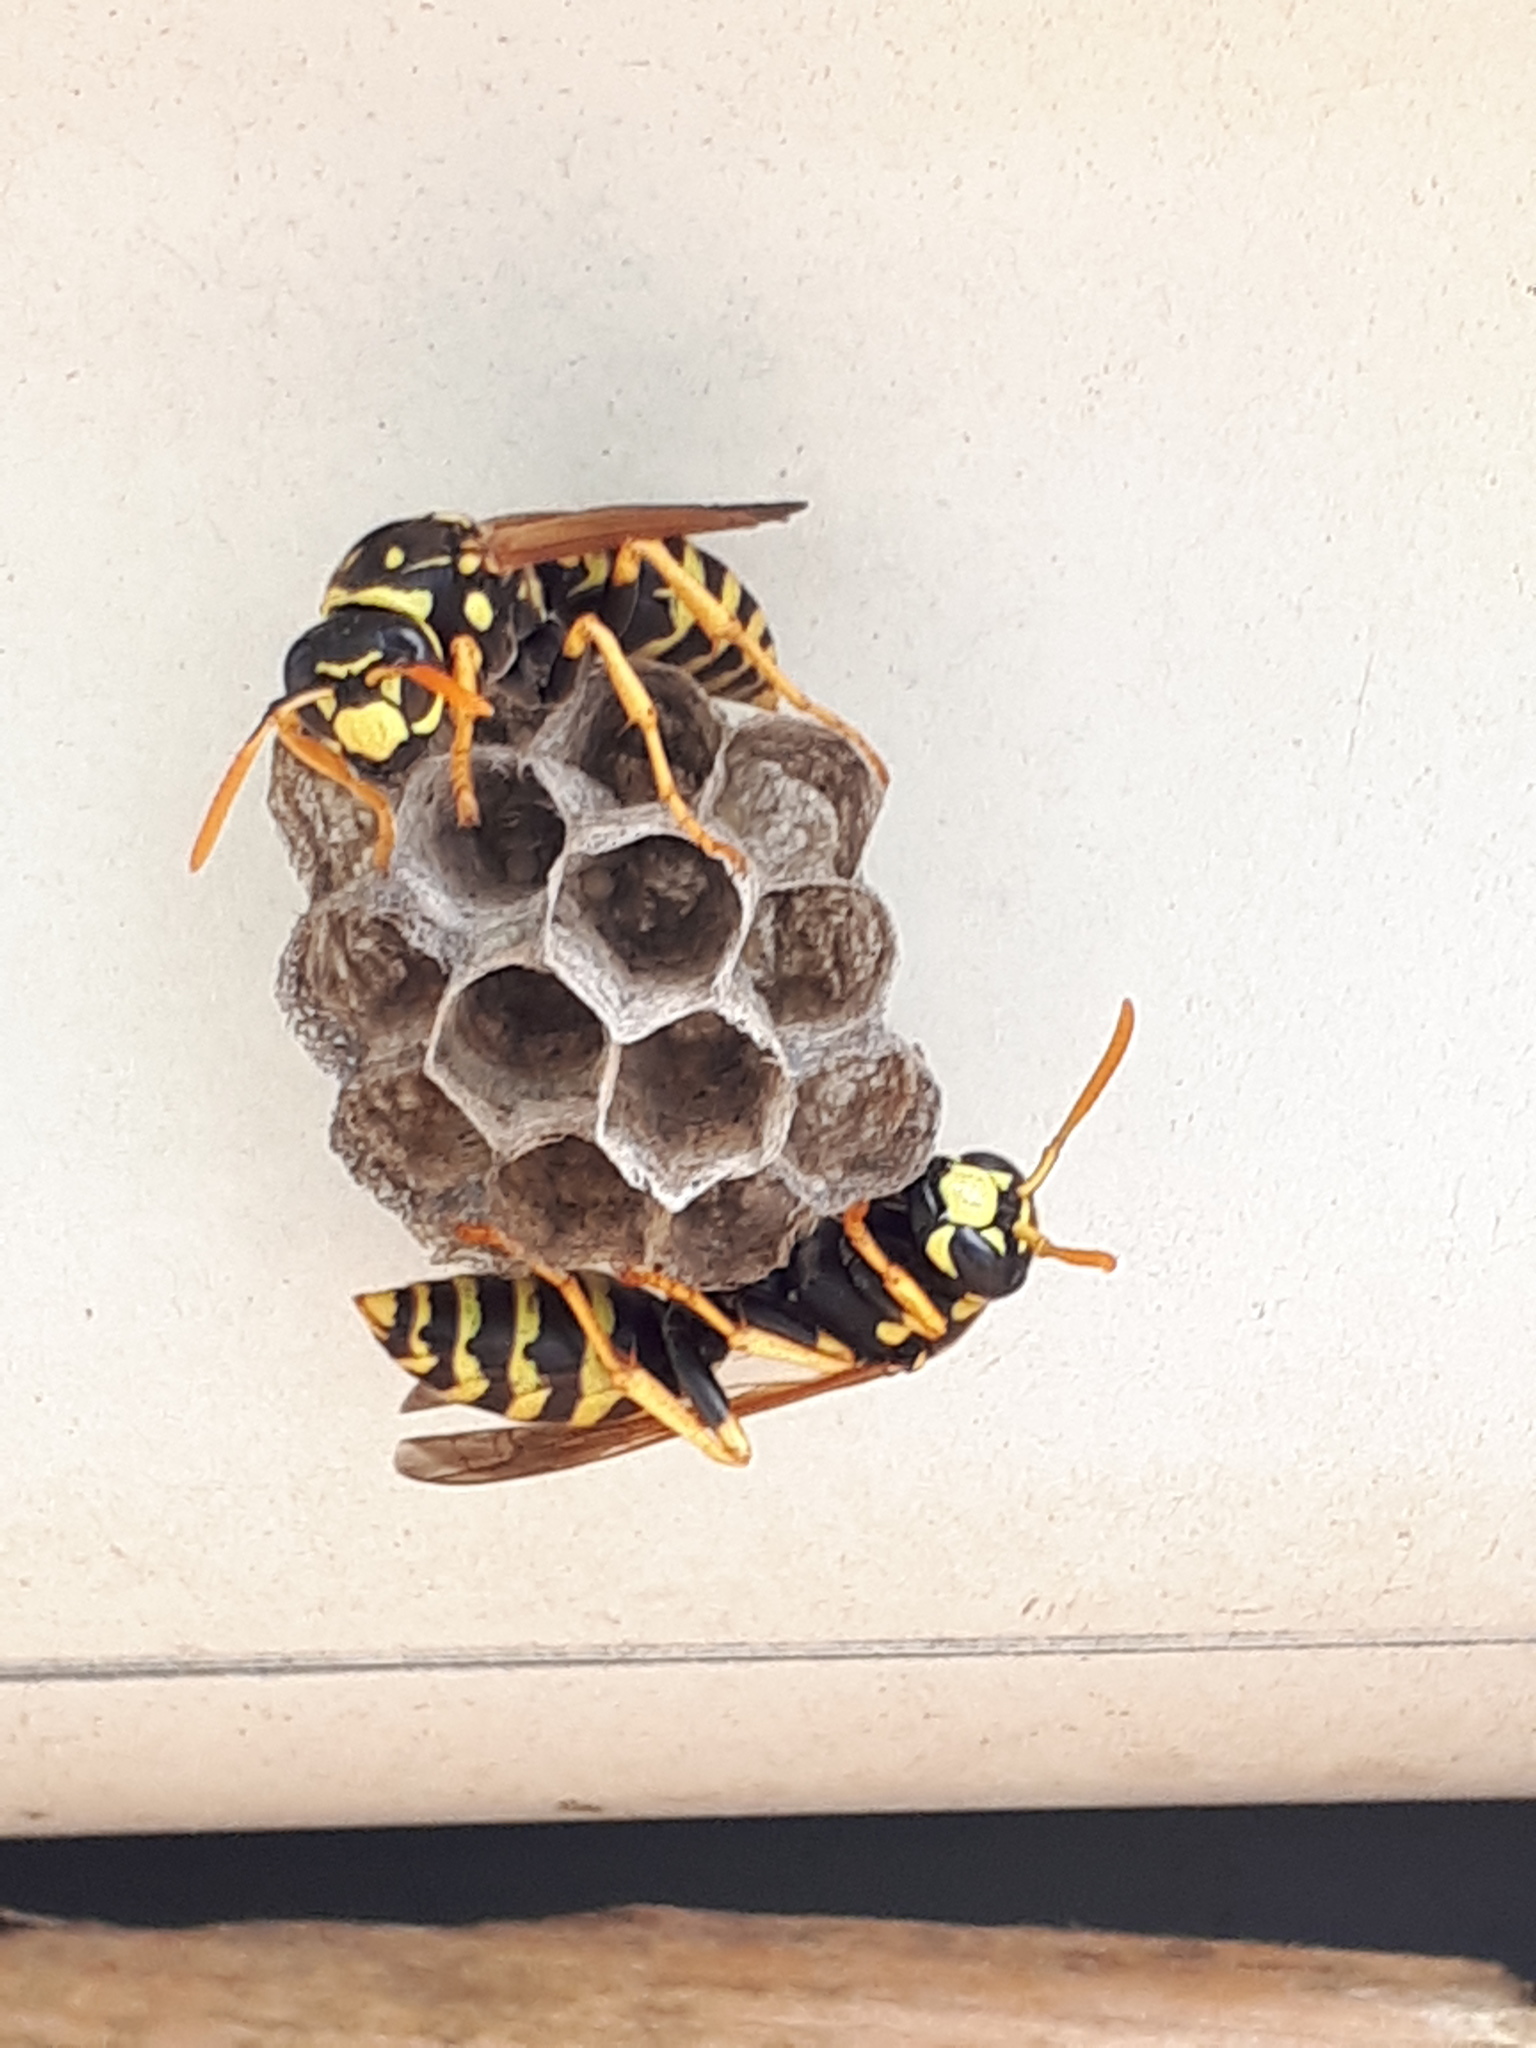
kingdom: Animalia
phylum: Arthropoda
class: Insecta
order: Hymenoptera
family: Eumenidae
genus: Polistes
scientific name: Polistes dominula
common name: Paper wasp
